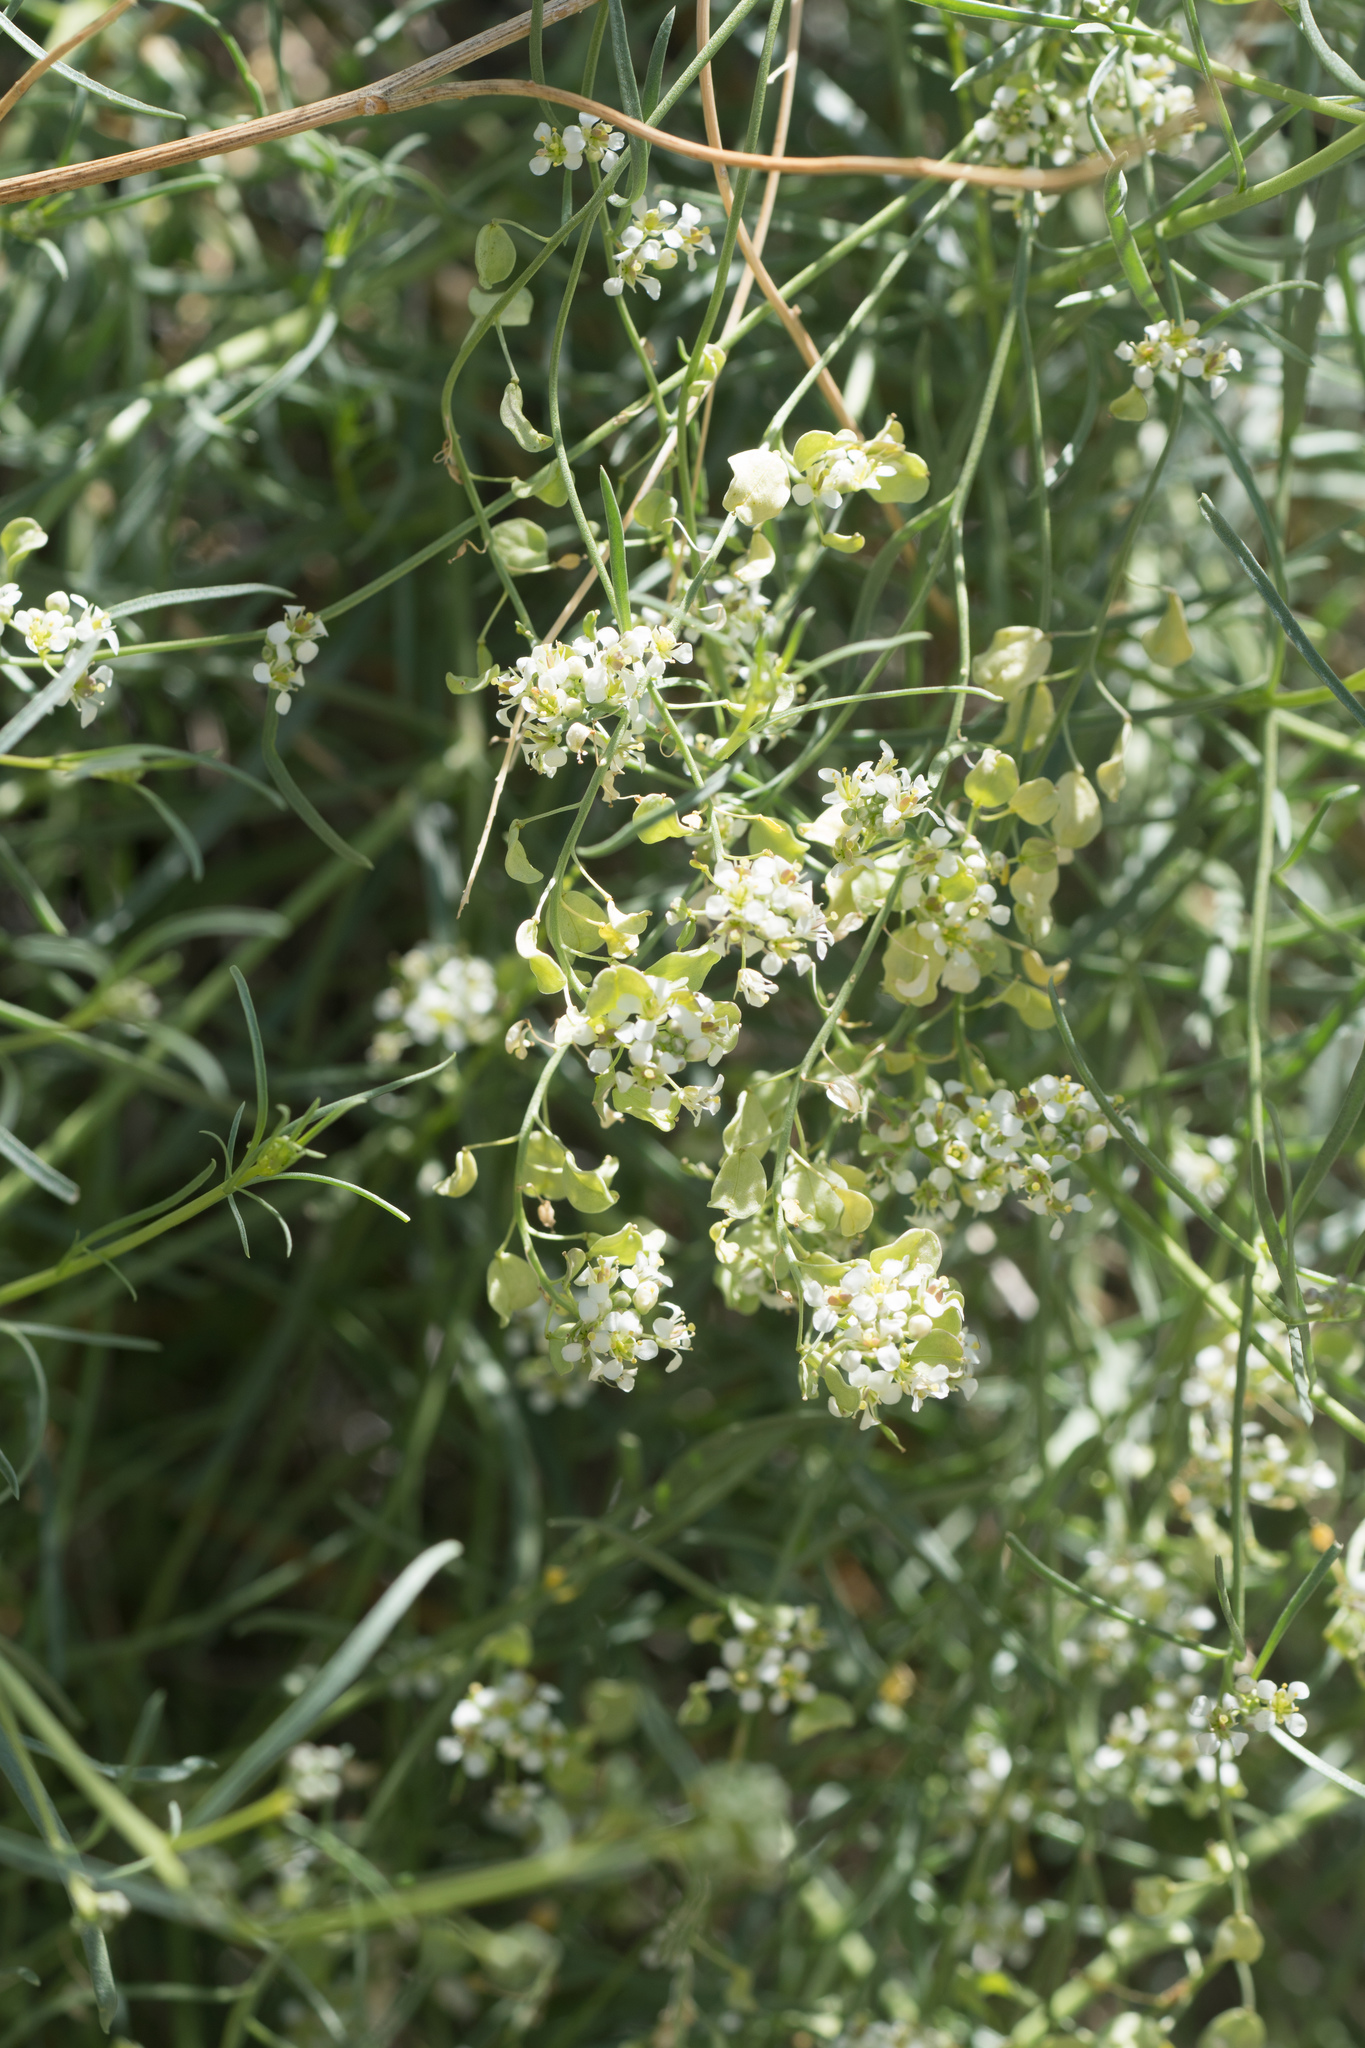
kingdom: Plantae
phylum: Tracheophyta
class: Magnoliopsida
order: Brassicales
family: Brassicaceae
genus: Lepidium
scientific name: Lepidium fremontii
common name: Fremont's pepperwort
